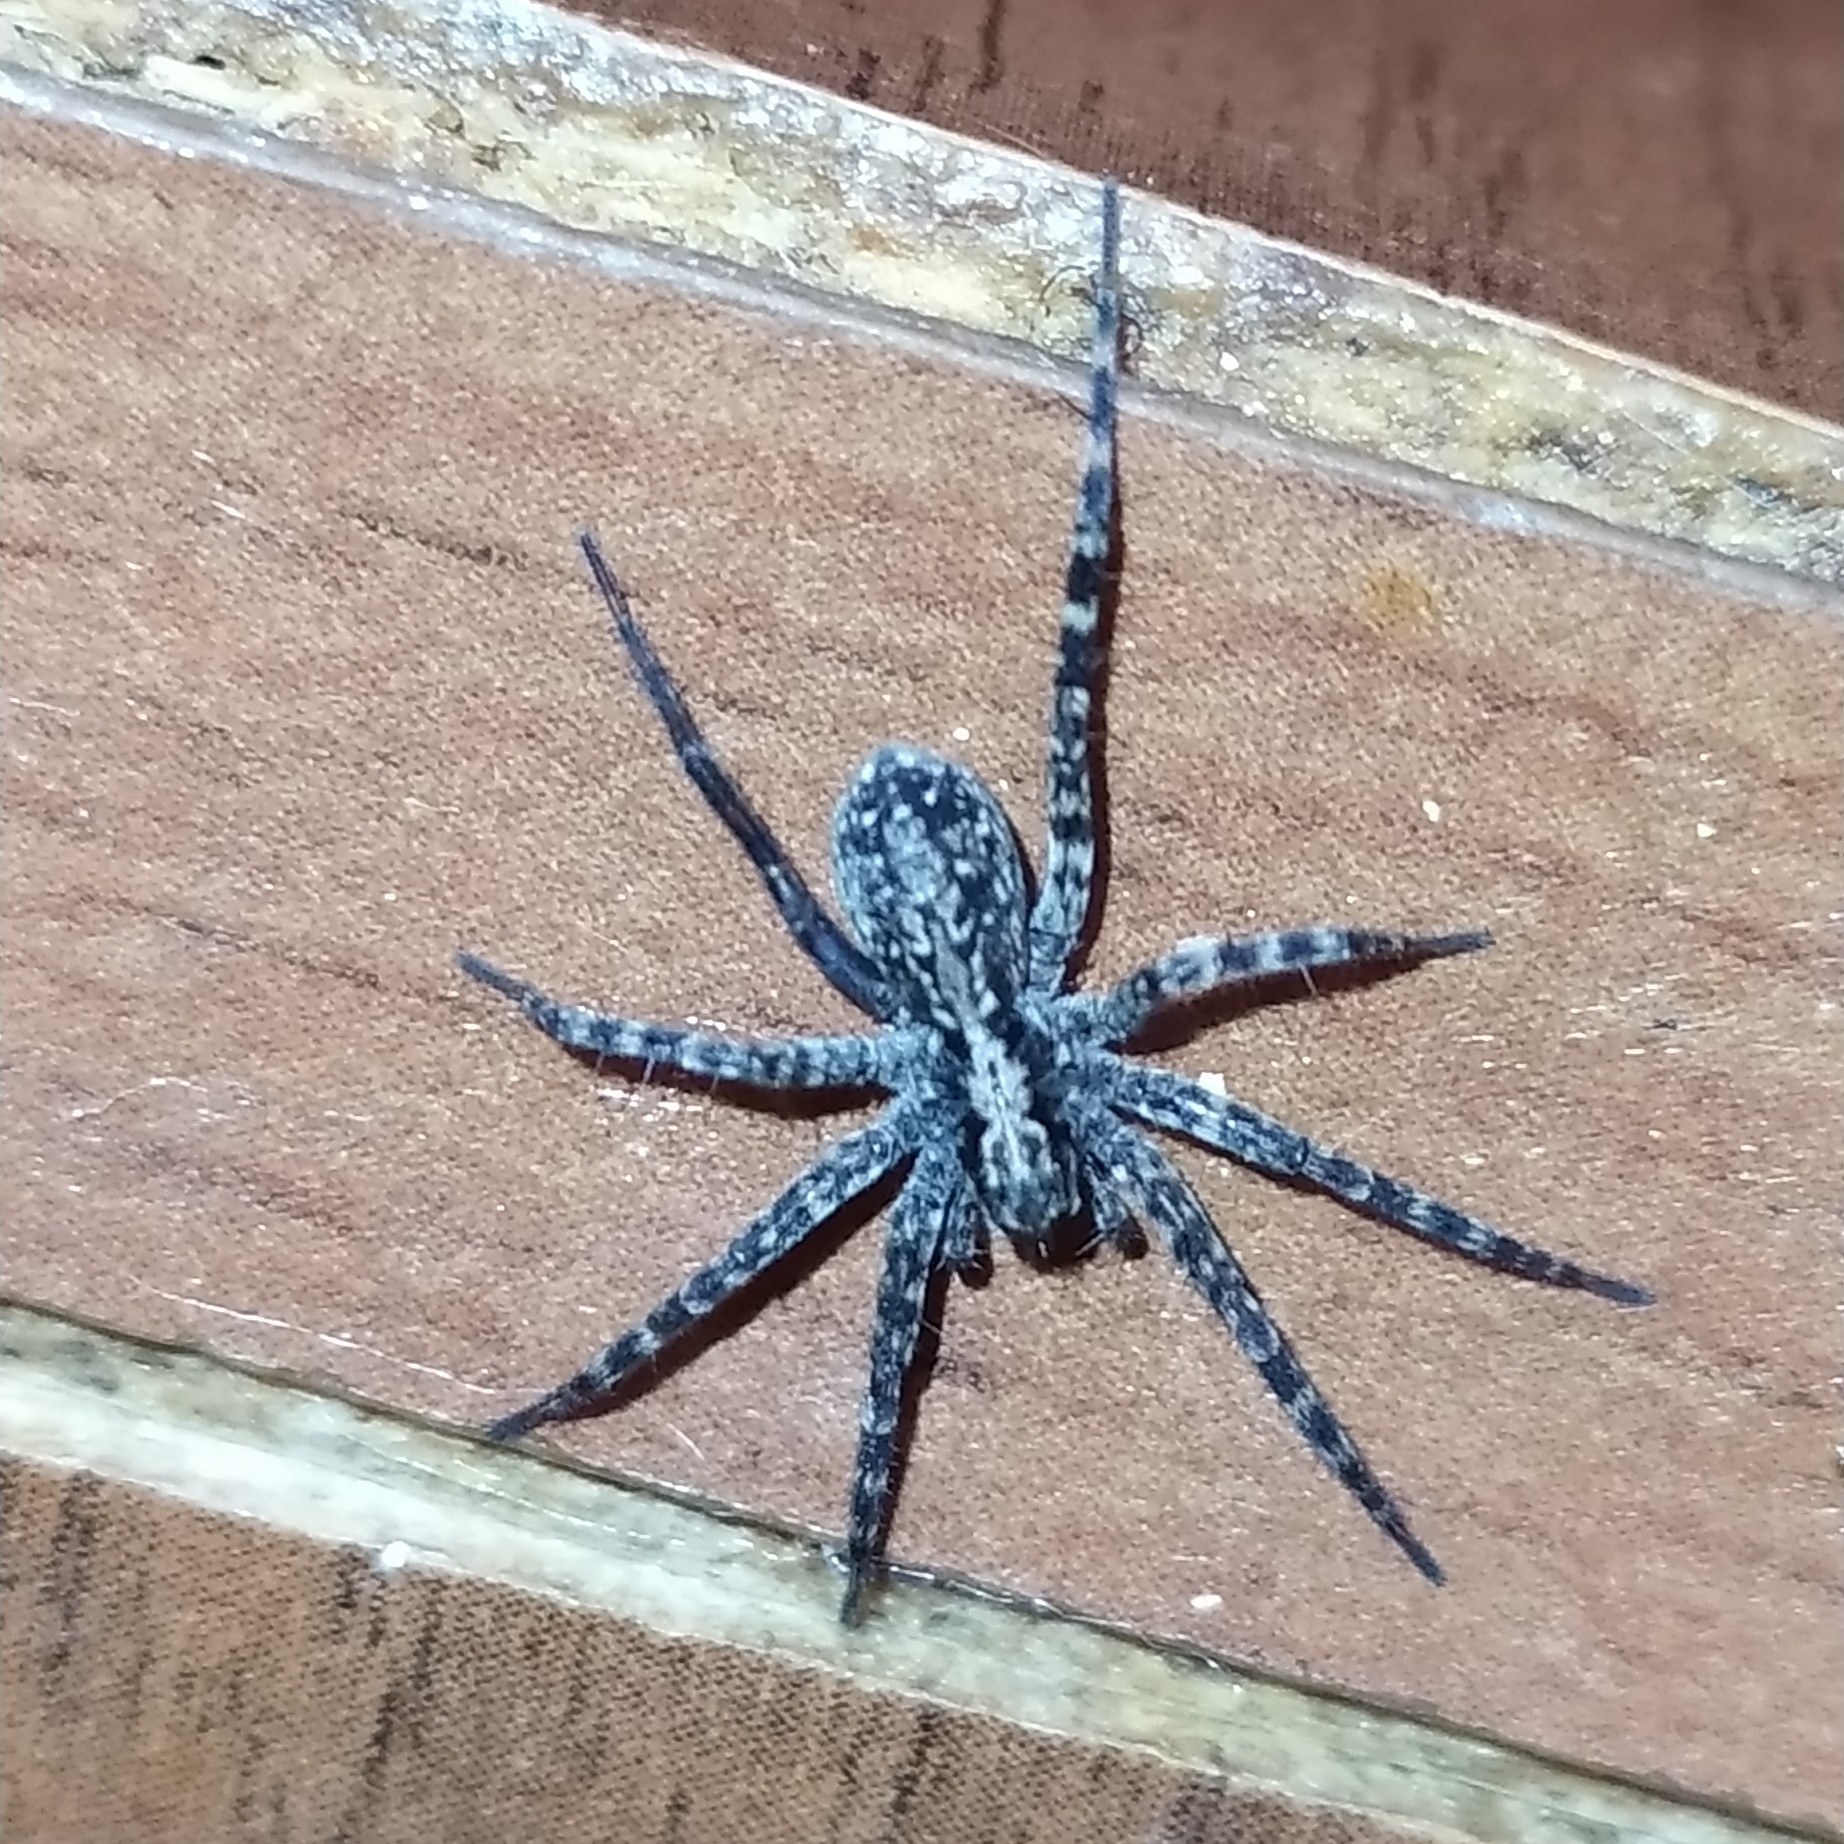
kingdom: Animalia
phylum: Arthropoda
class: Arachnida
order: Araneae
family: Lycosidae
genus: Acantholycosa
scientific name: Acantholycosa lignaria
